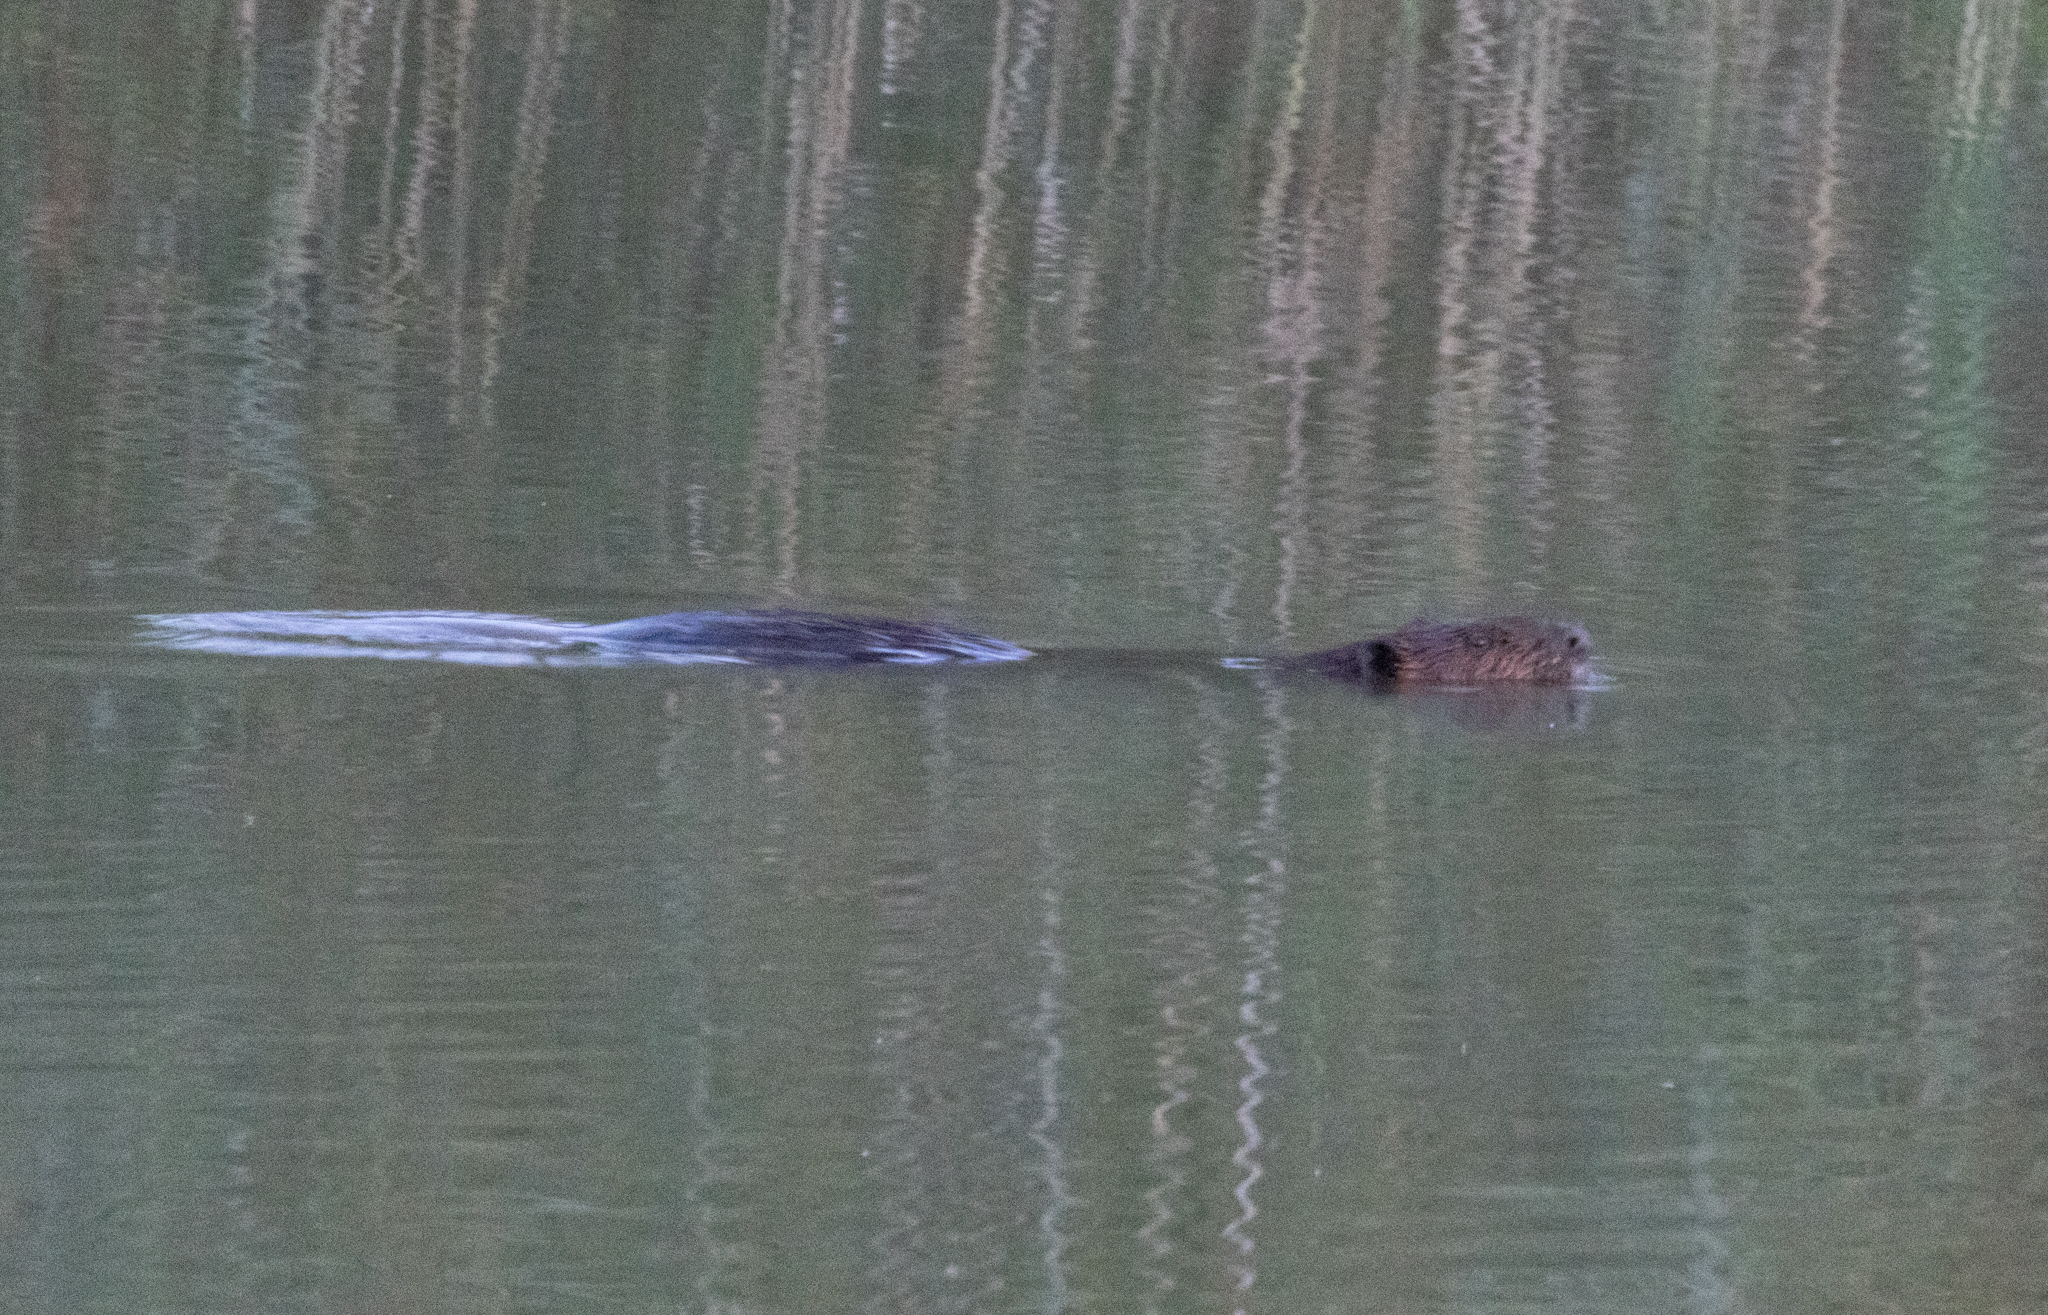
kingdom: Animalia
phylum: Chordata
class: Mammalia
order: Rodentia
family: Castoridae
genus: Castor
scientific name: Castor canadensis
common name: American beaver
